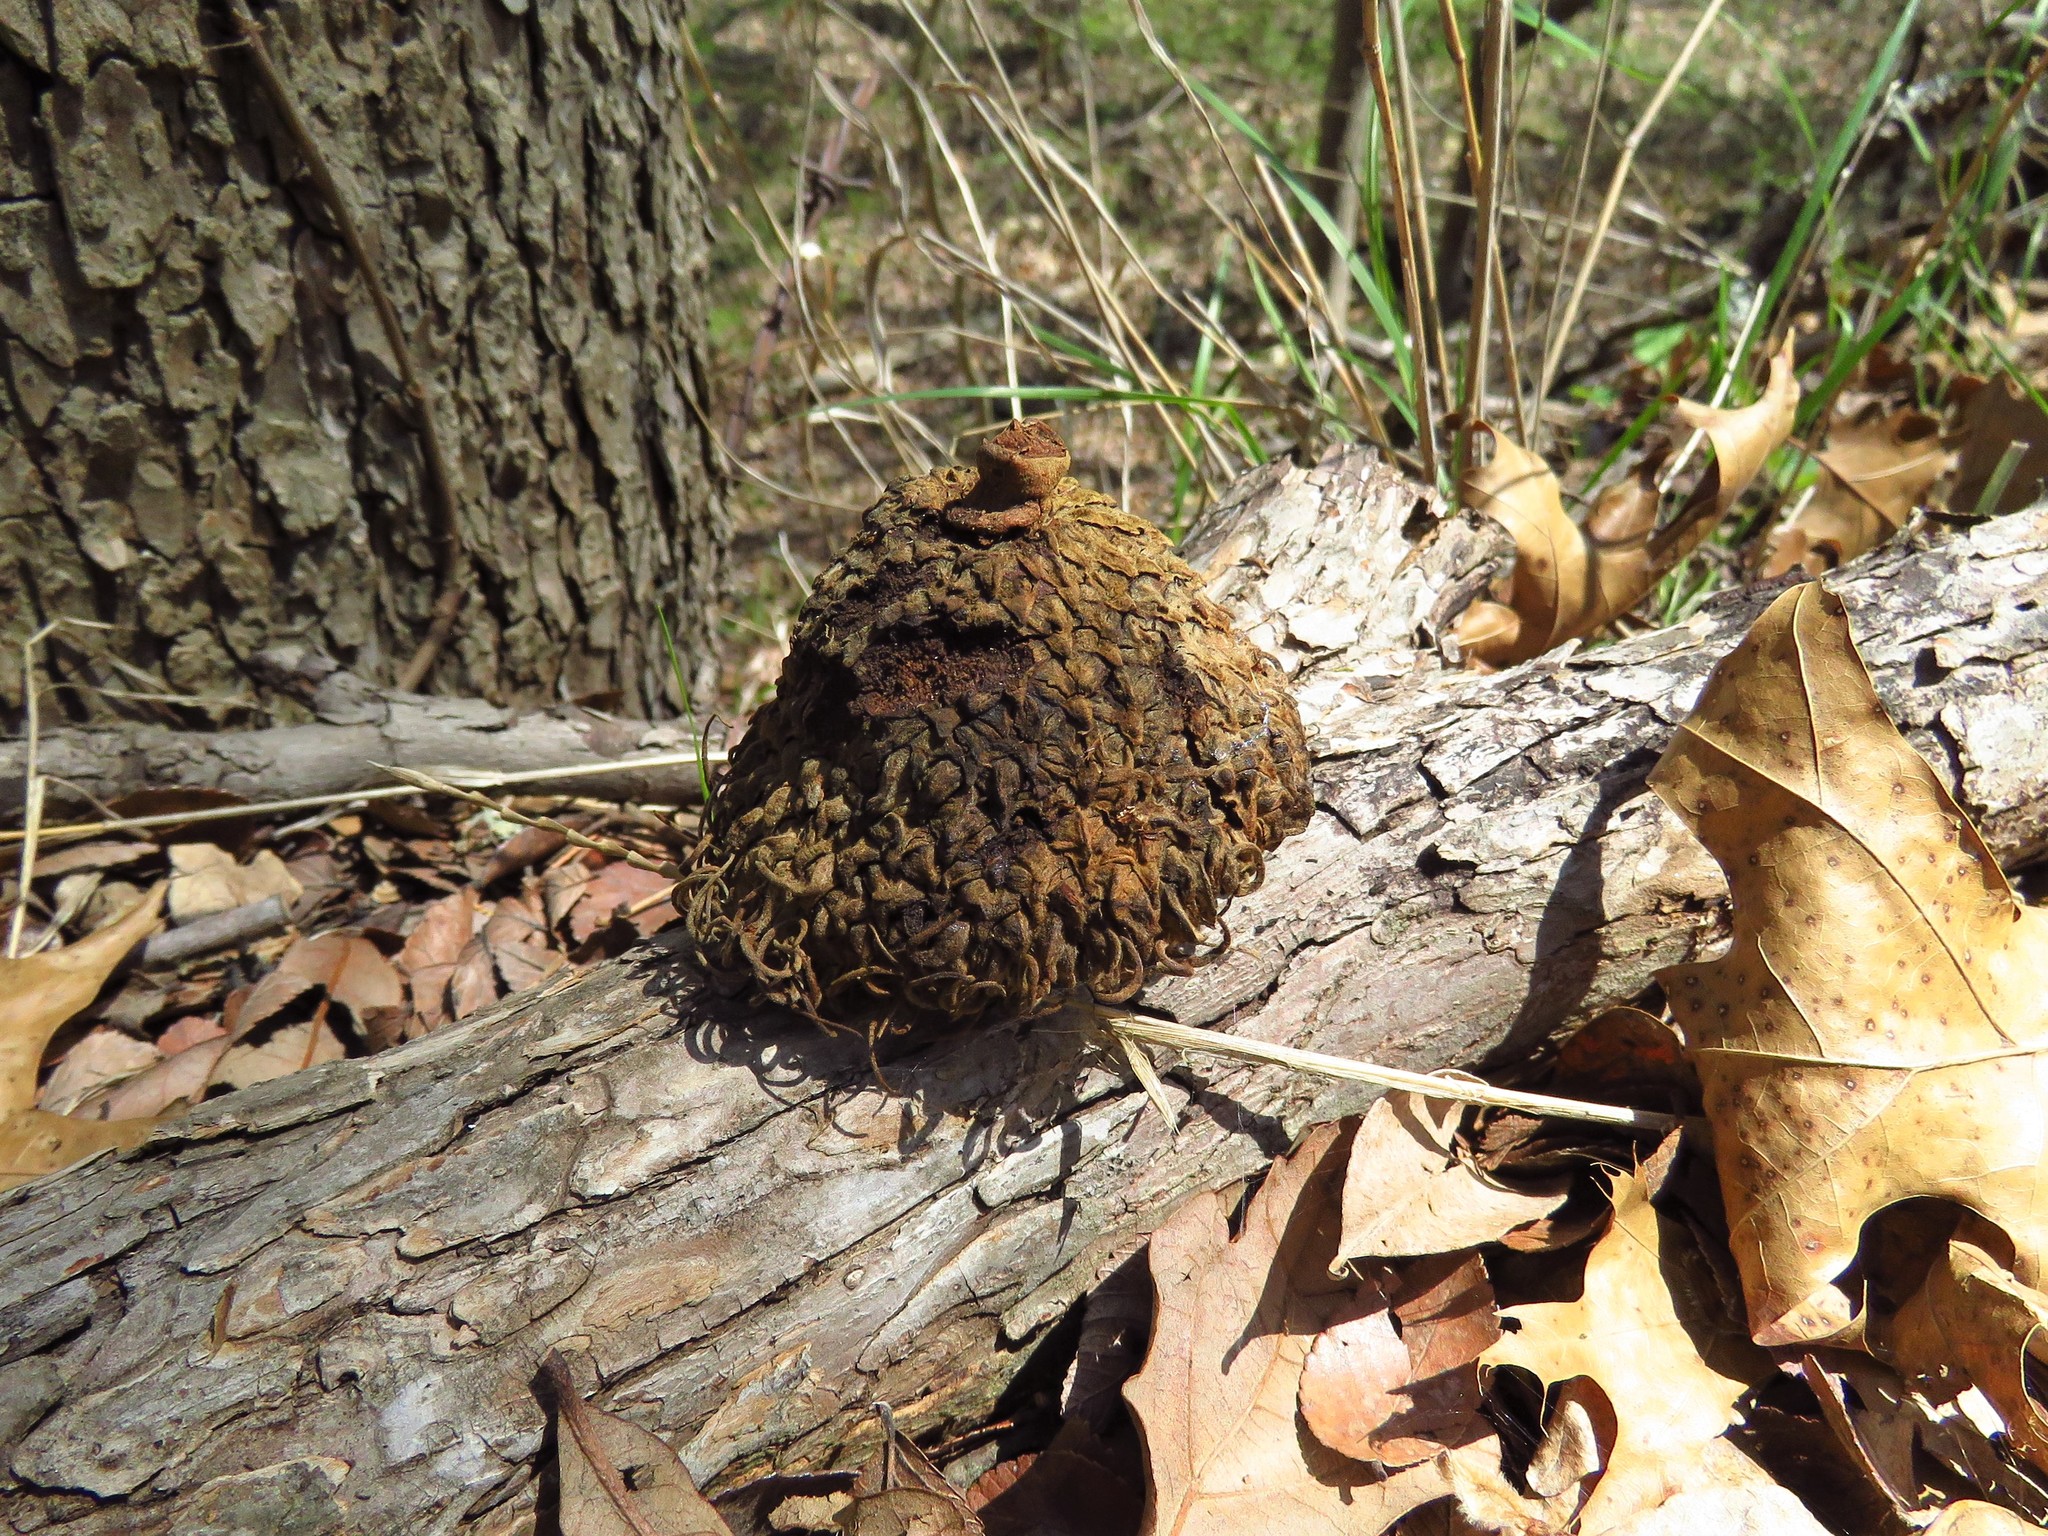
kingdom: Plantae
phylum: Tracheophyta
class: Magnoliopsida
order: Fagales
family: Fagaceae
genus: Quercus
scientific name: Quercus macrocarpa
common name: Bur oak
